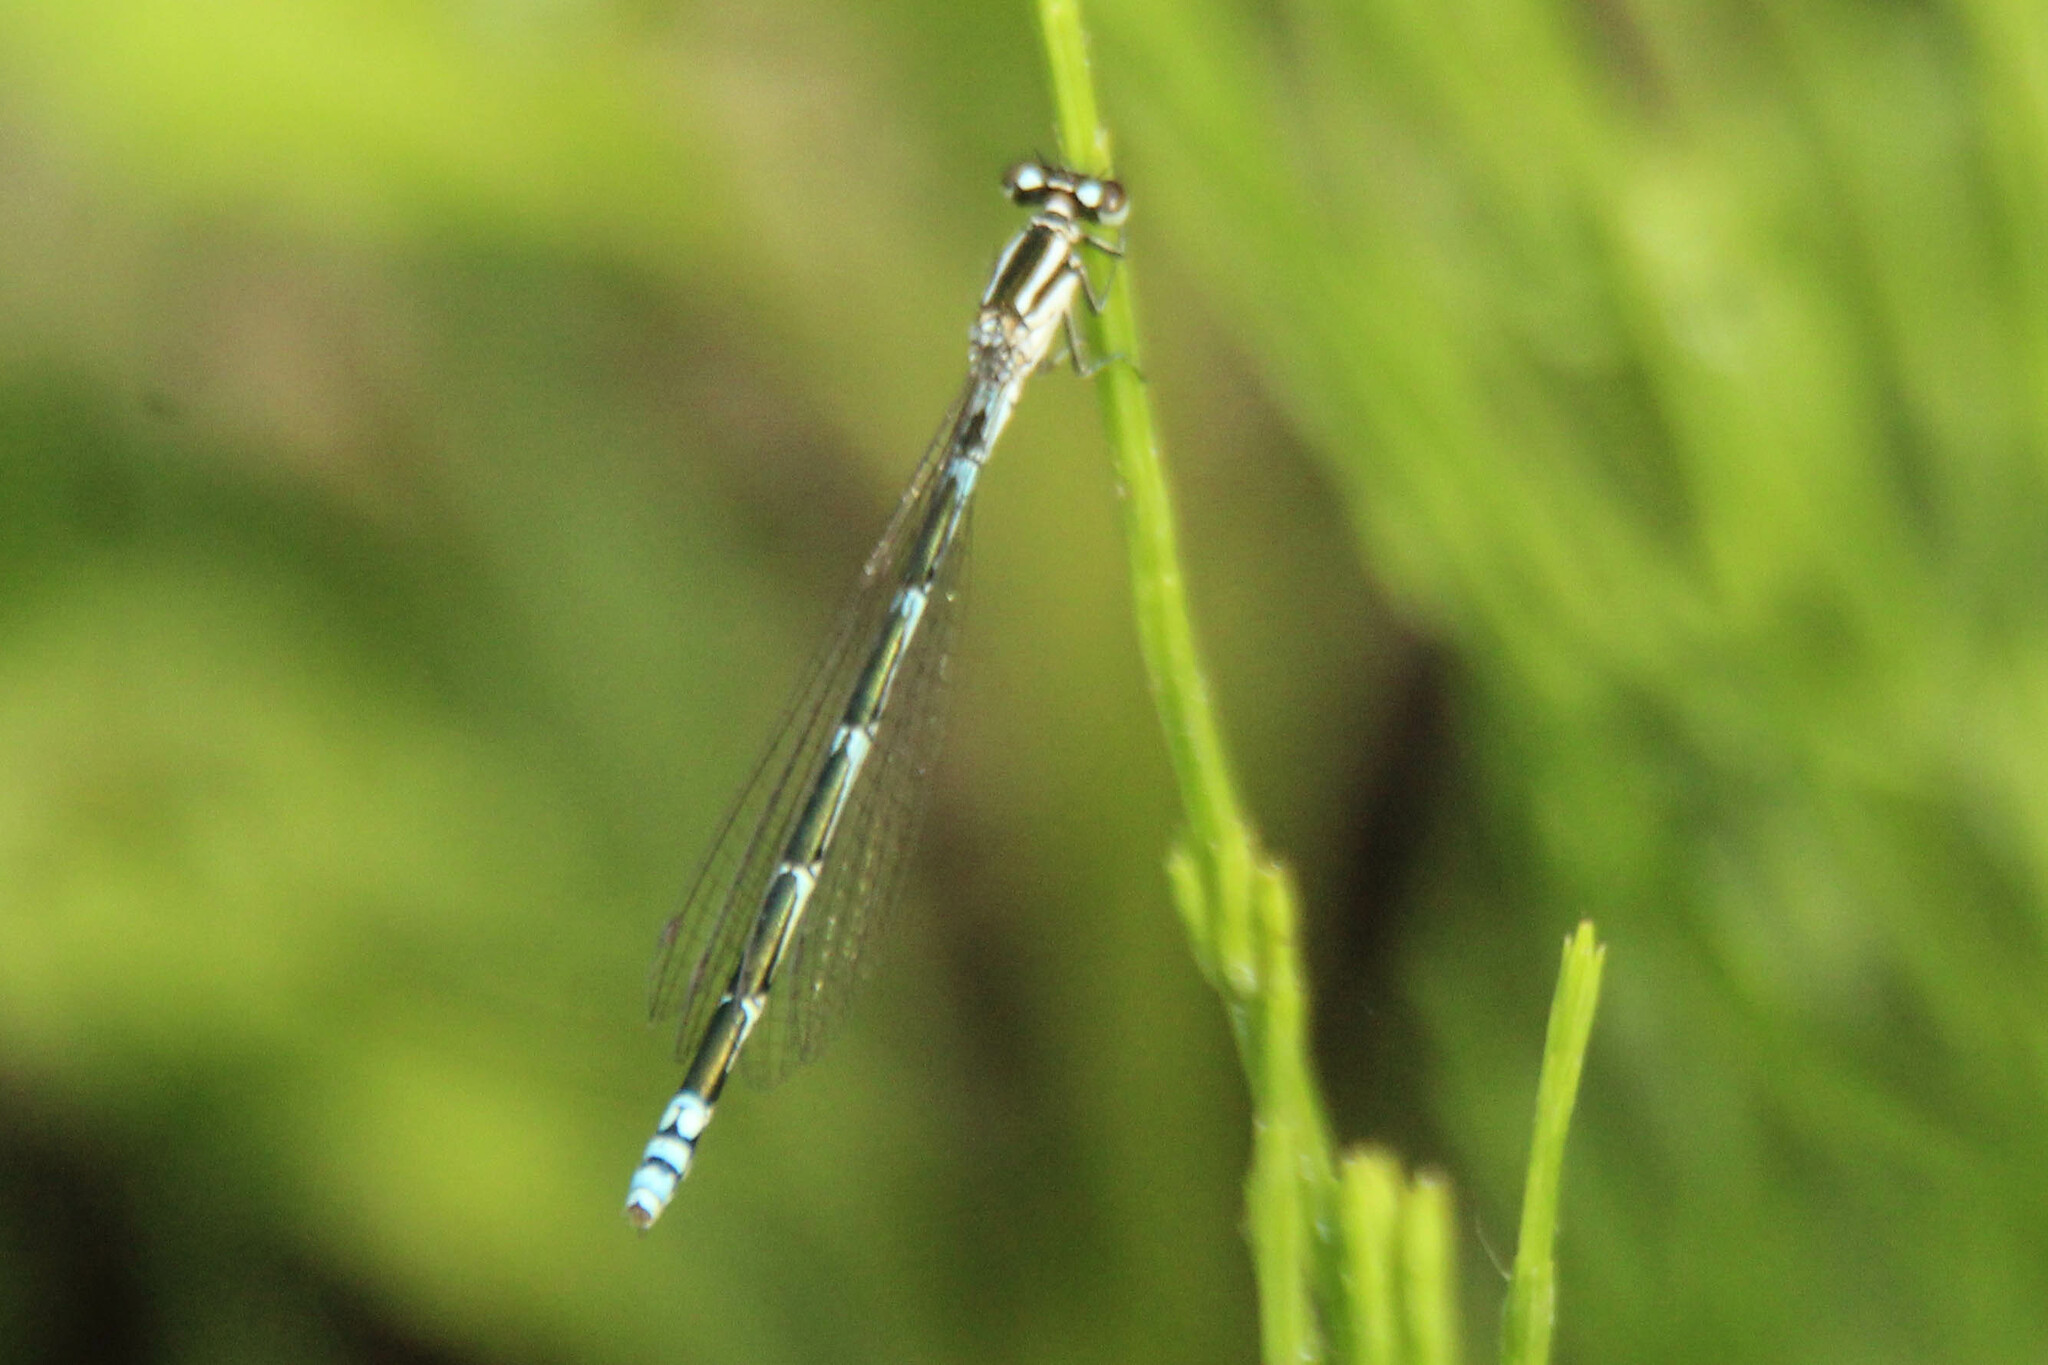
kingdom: Animalia
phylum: Arthropoda
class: Insecta
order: Odonata
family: Coenagrionidae
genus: Coenagrion
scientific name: Coenagrion johanssoni
